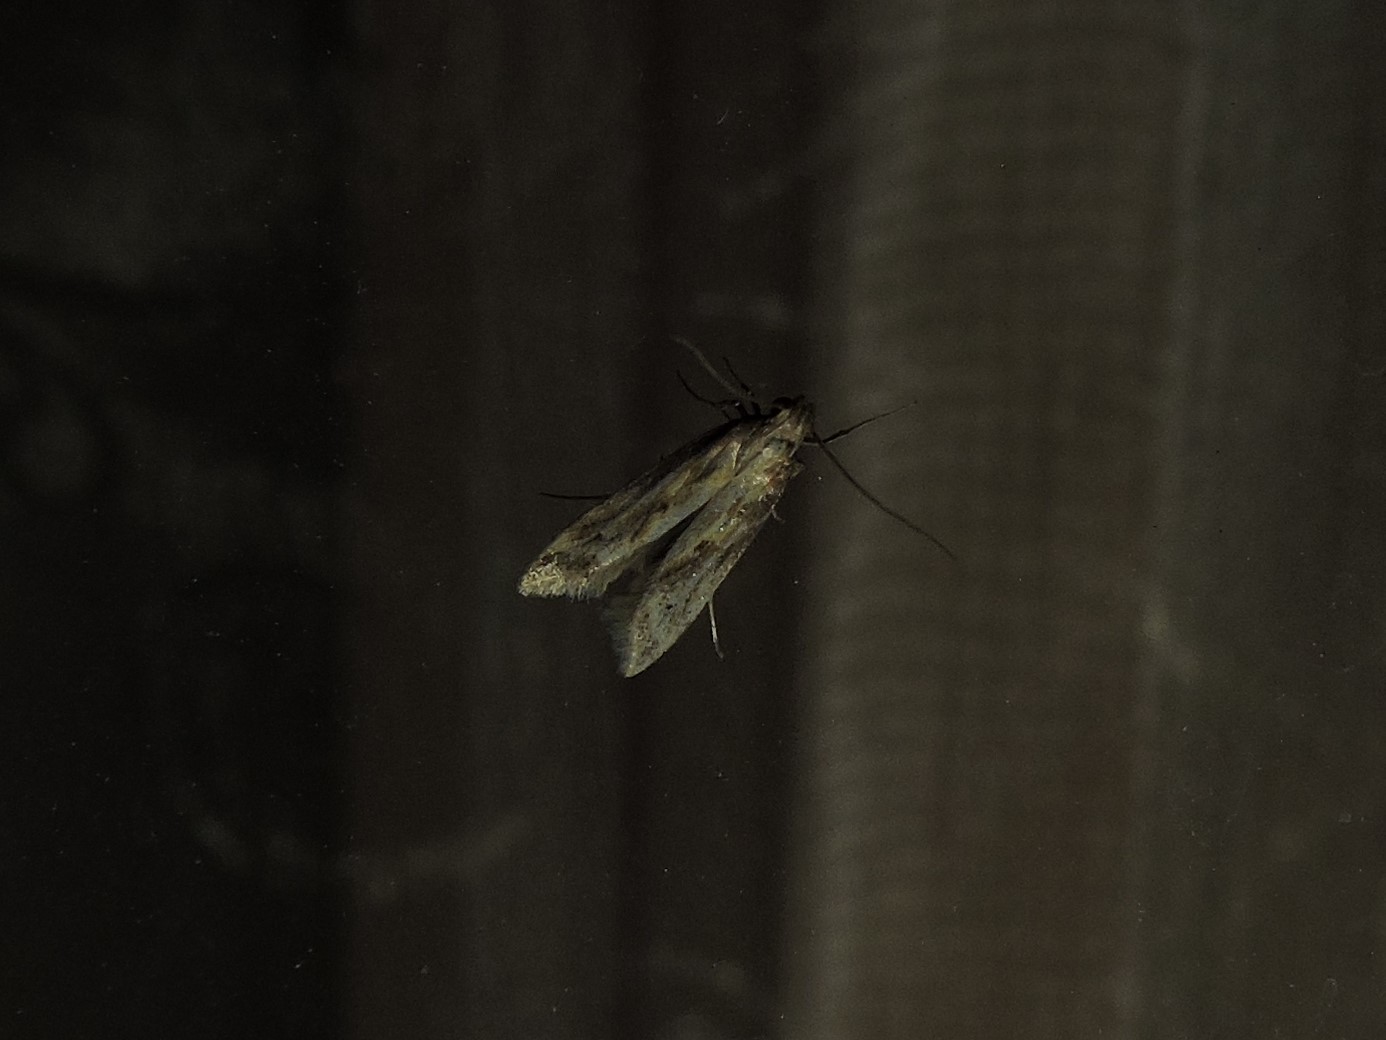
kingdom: Animalia
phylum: Arthropoda
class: Insecta
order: Lepidoptera
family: Gelechiidae
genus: Metzneria
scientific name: Metzneria lappella
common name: Burdock neb
